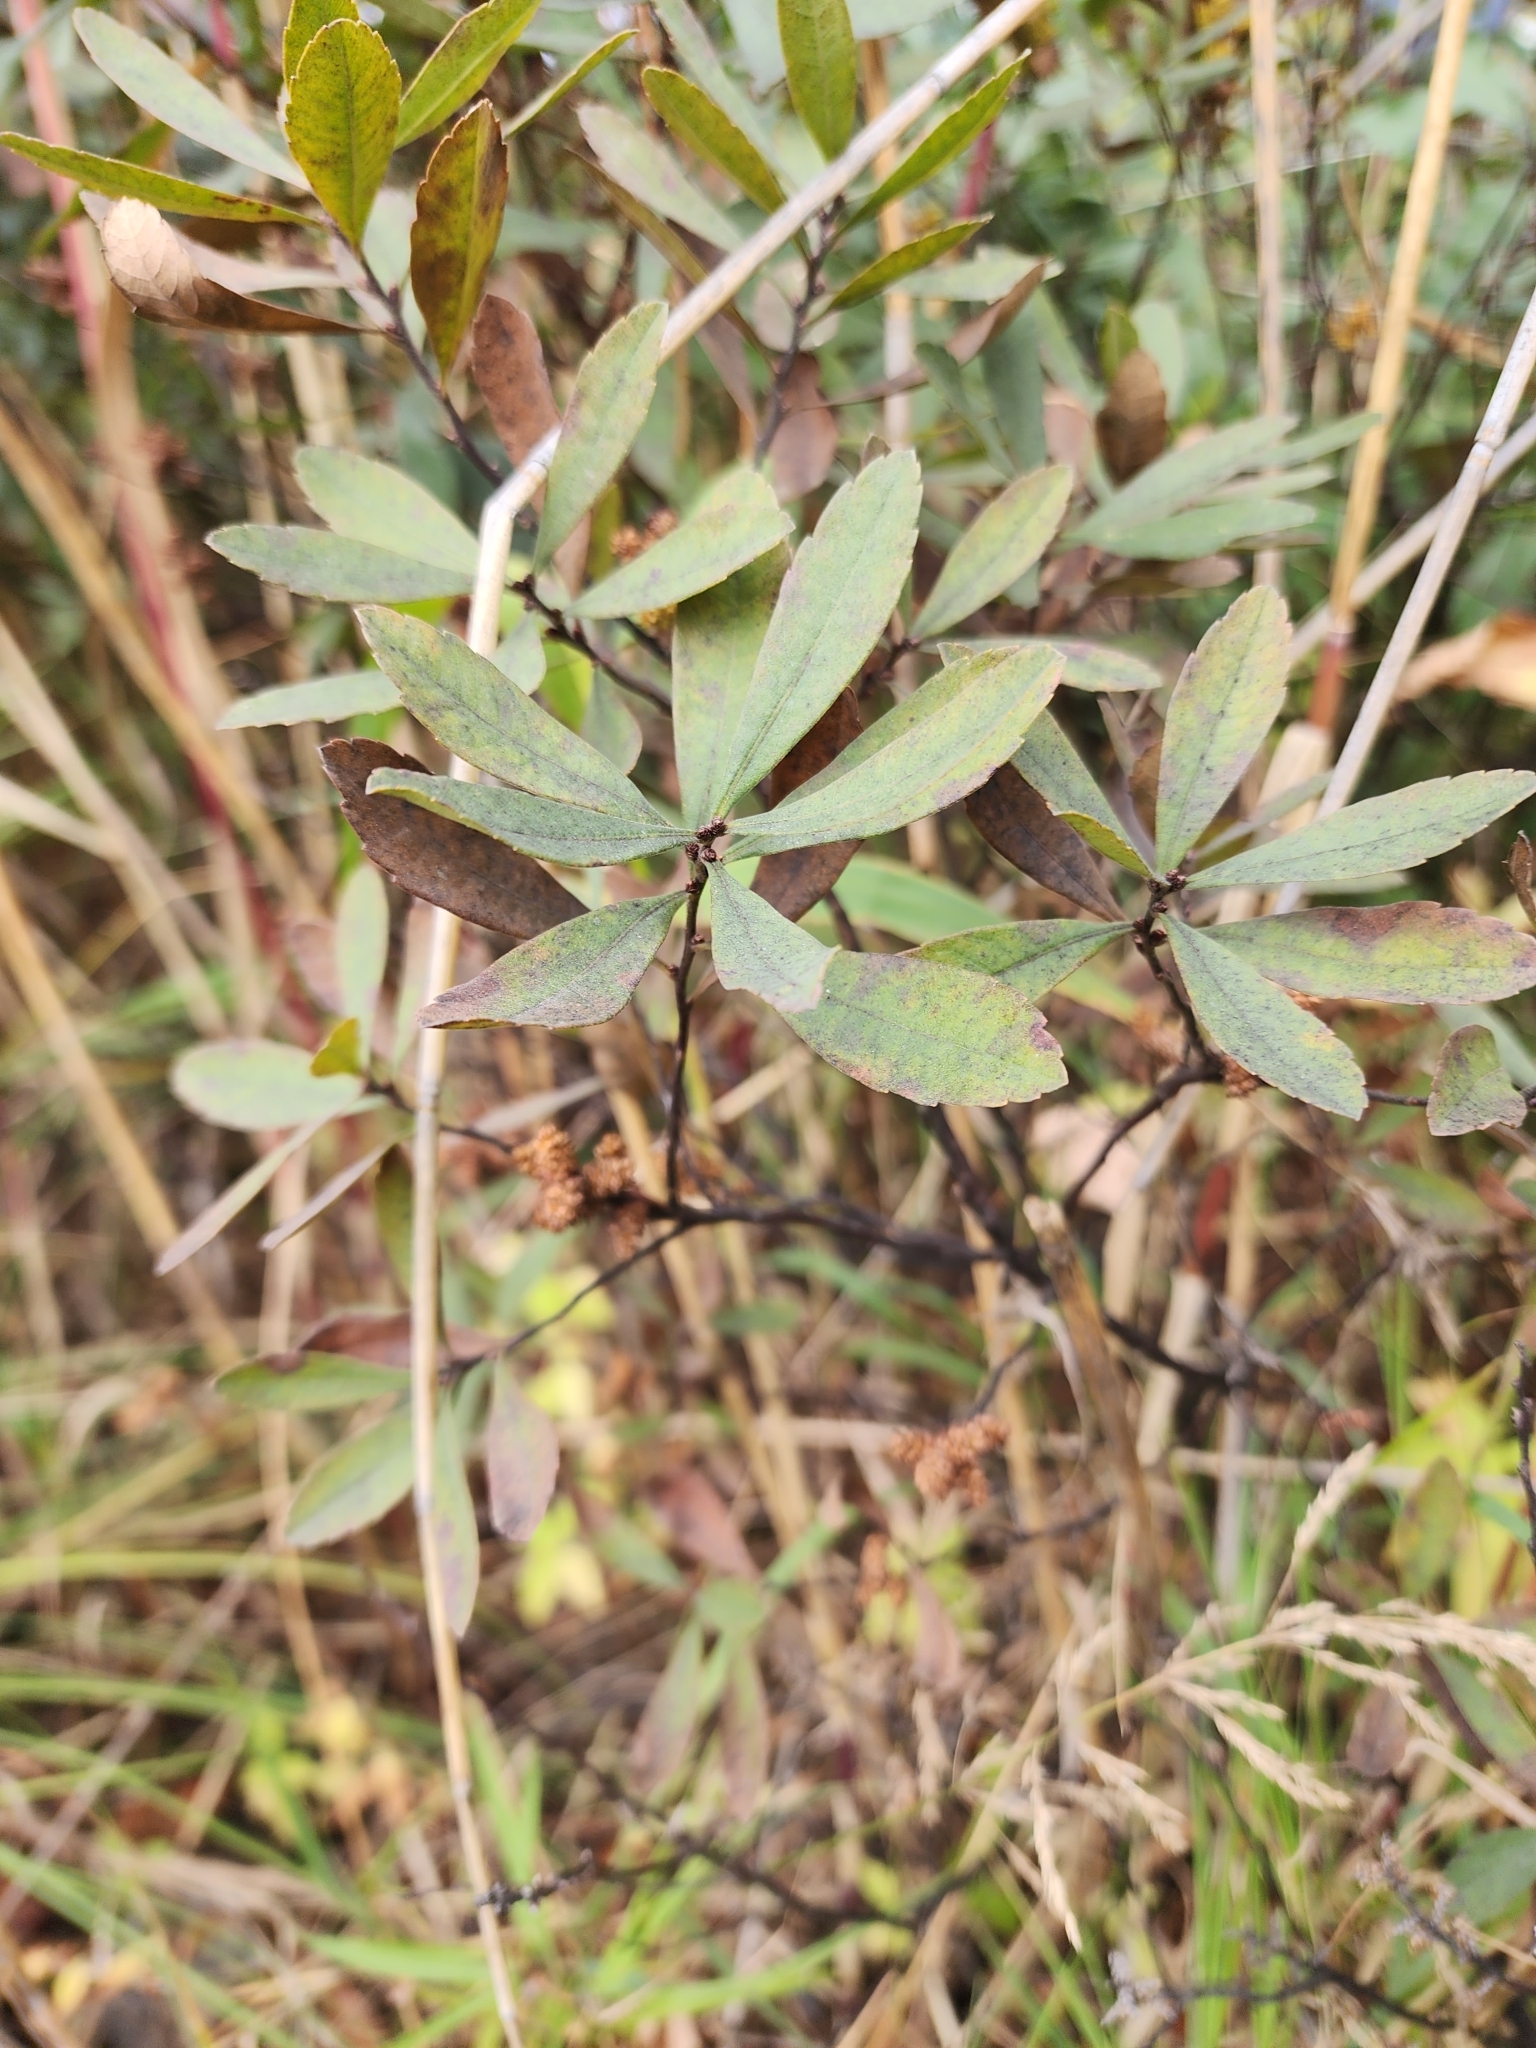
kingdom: Plantae
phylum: Tracheophyta
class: Magnoliopsida
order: Fagales
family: Myricaceae
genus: Myrica
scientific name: Myrica gale
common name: Sweet gale
